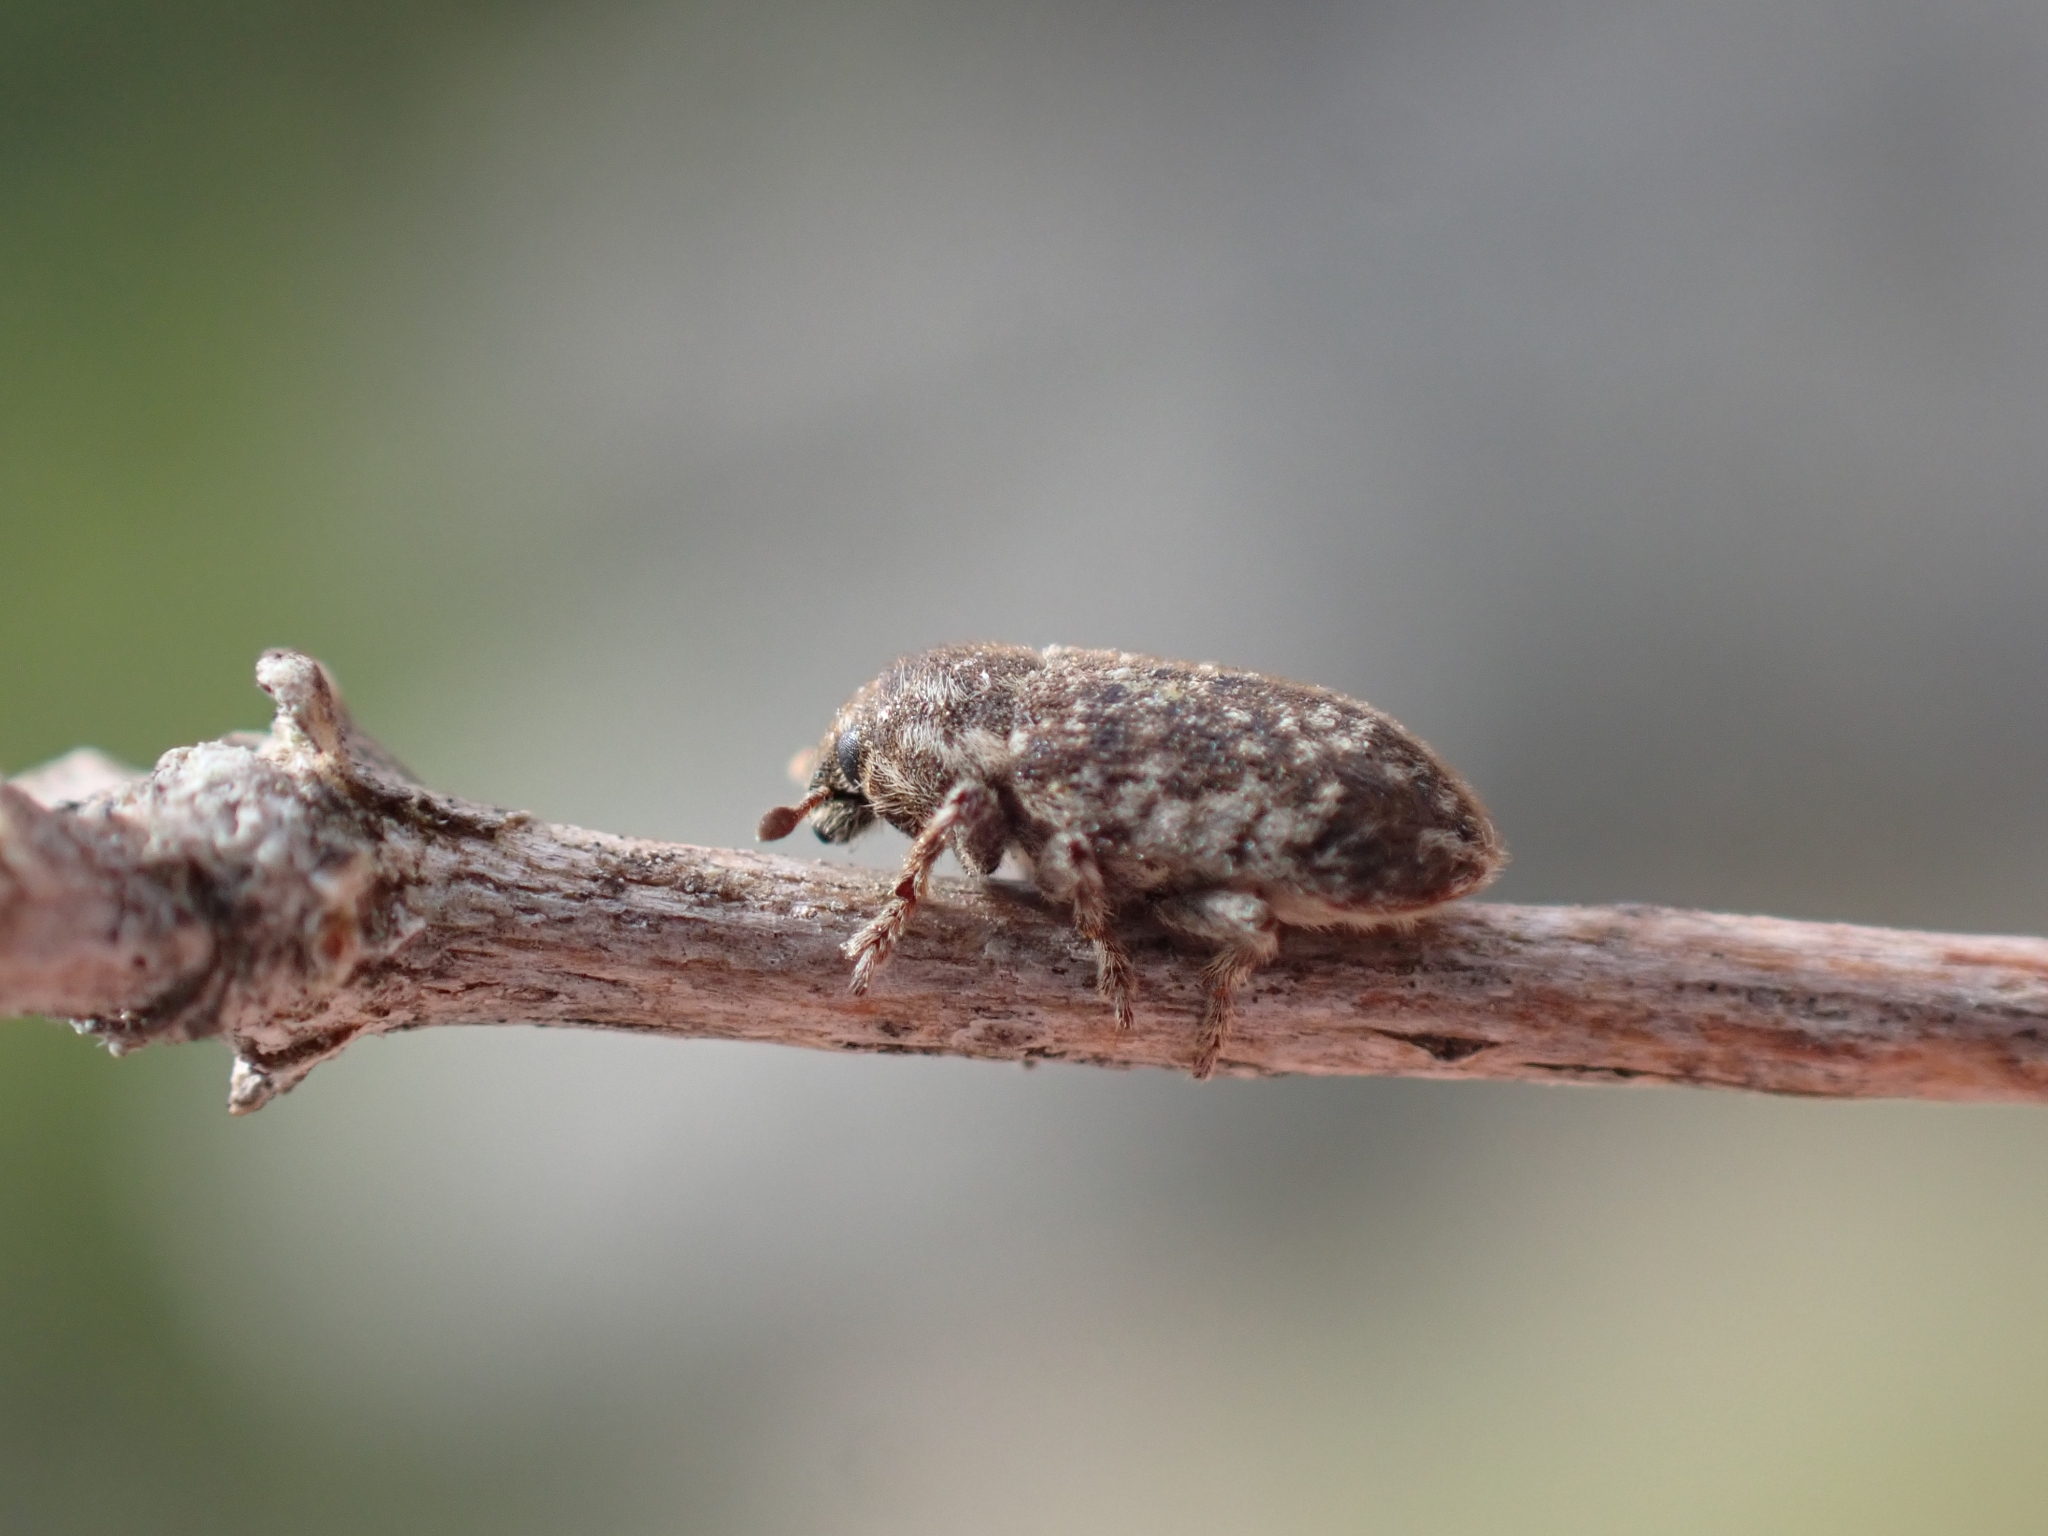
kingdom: Animalia
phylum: Arthropoda
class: Insecta
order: Coleoptera
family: Curculionidae
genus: Bangasternus
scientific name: Bangasternus fausti
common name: Broad-nosed knapweed seedhead weevil
